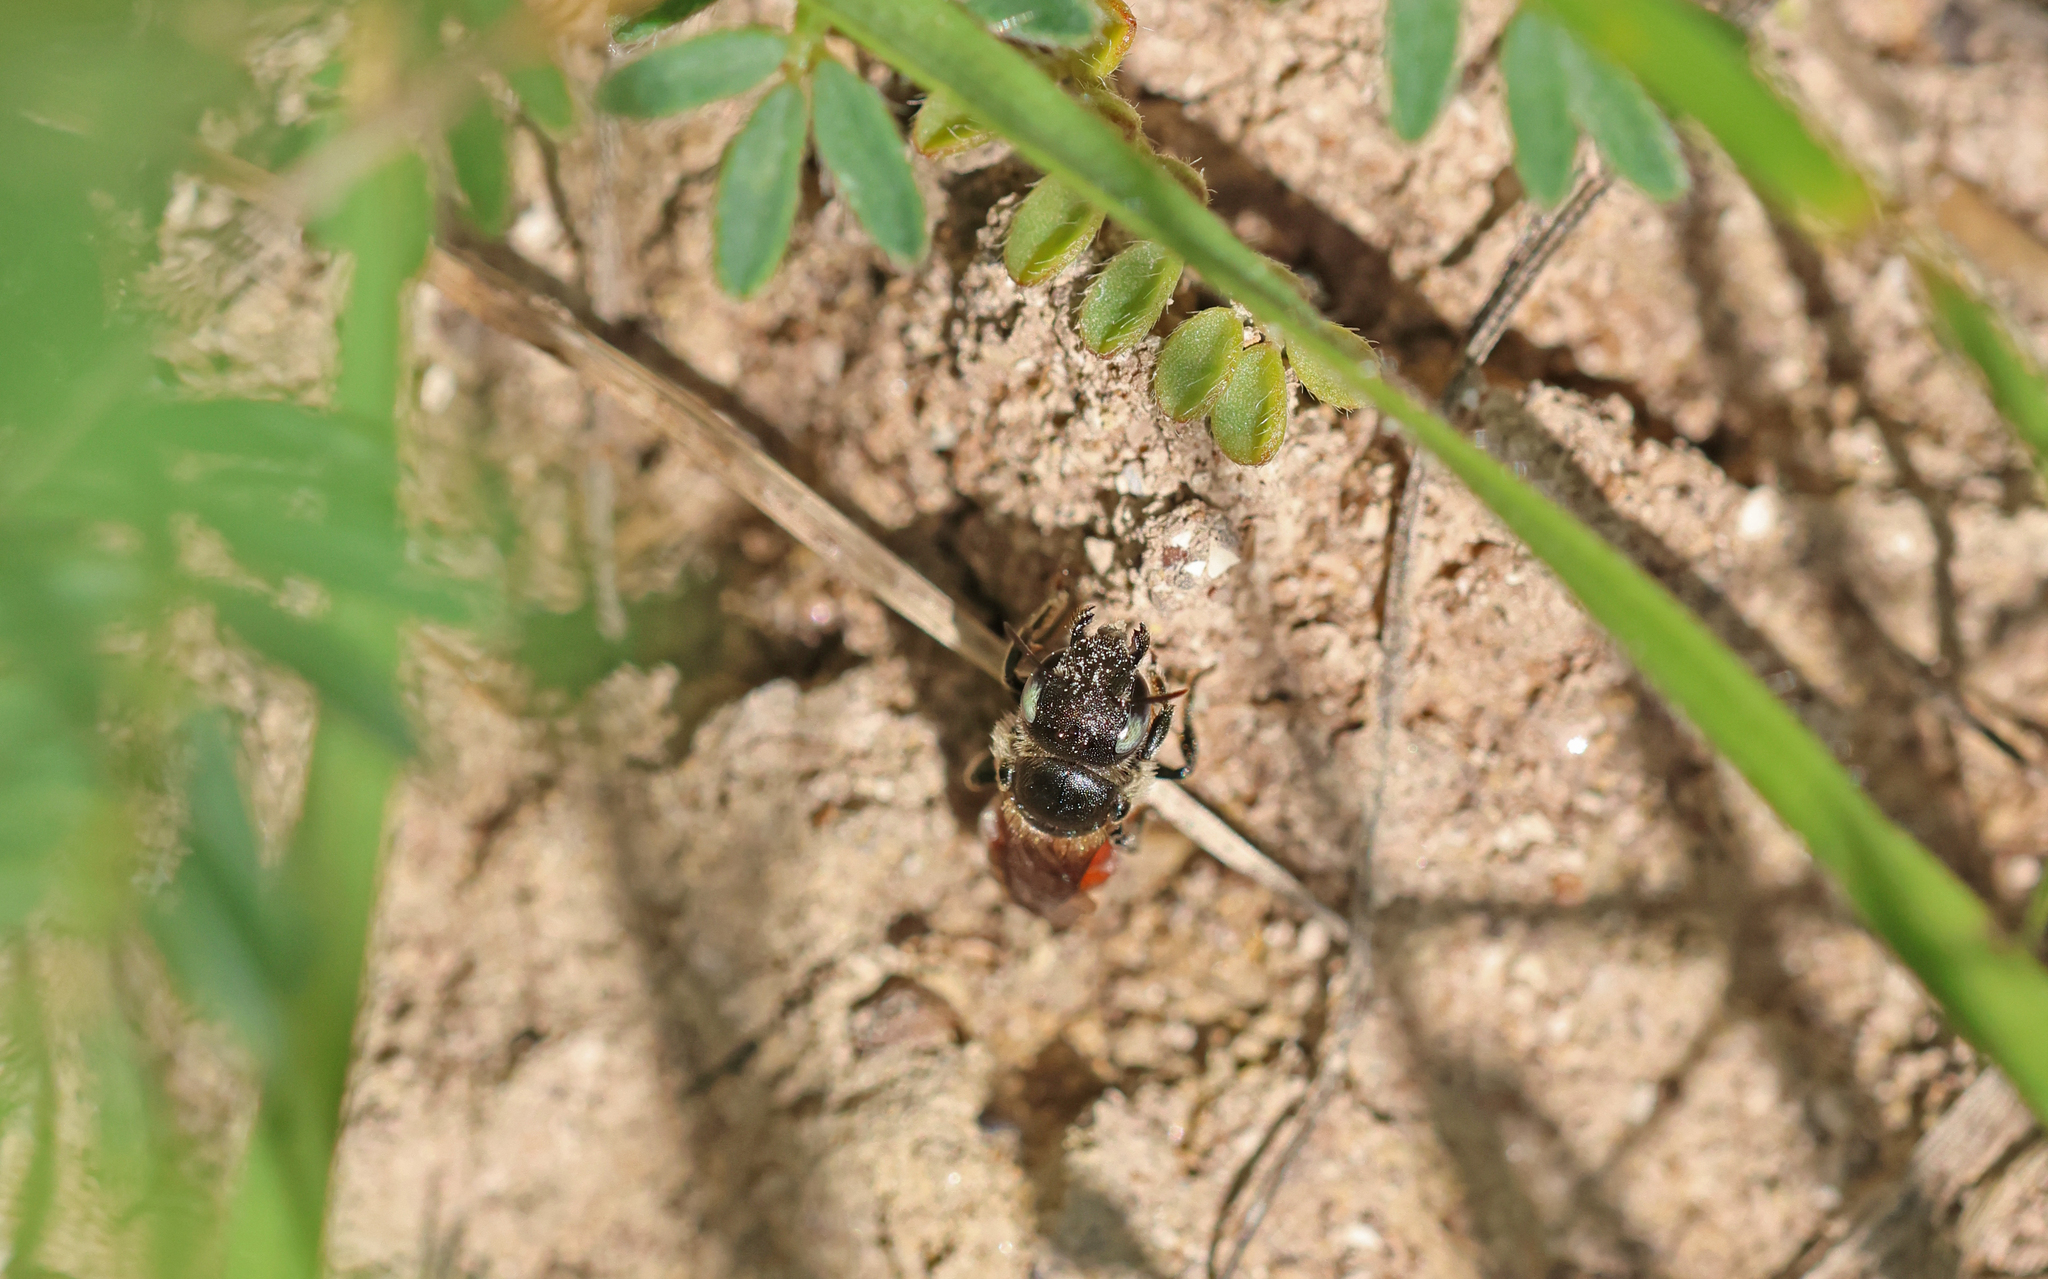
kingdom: Animalia
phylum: Arthropoda
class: Insecta
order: Hymenoptera
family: Megachilidae
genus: Osmia
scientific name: Osmia andrenoides
